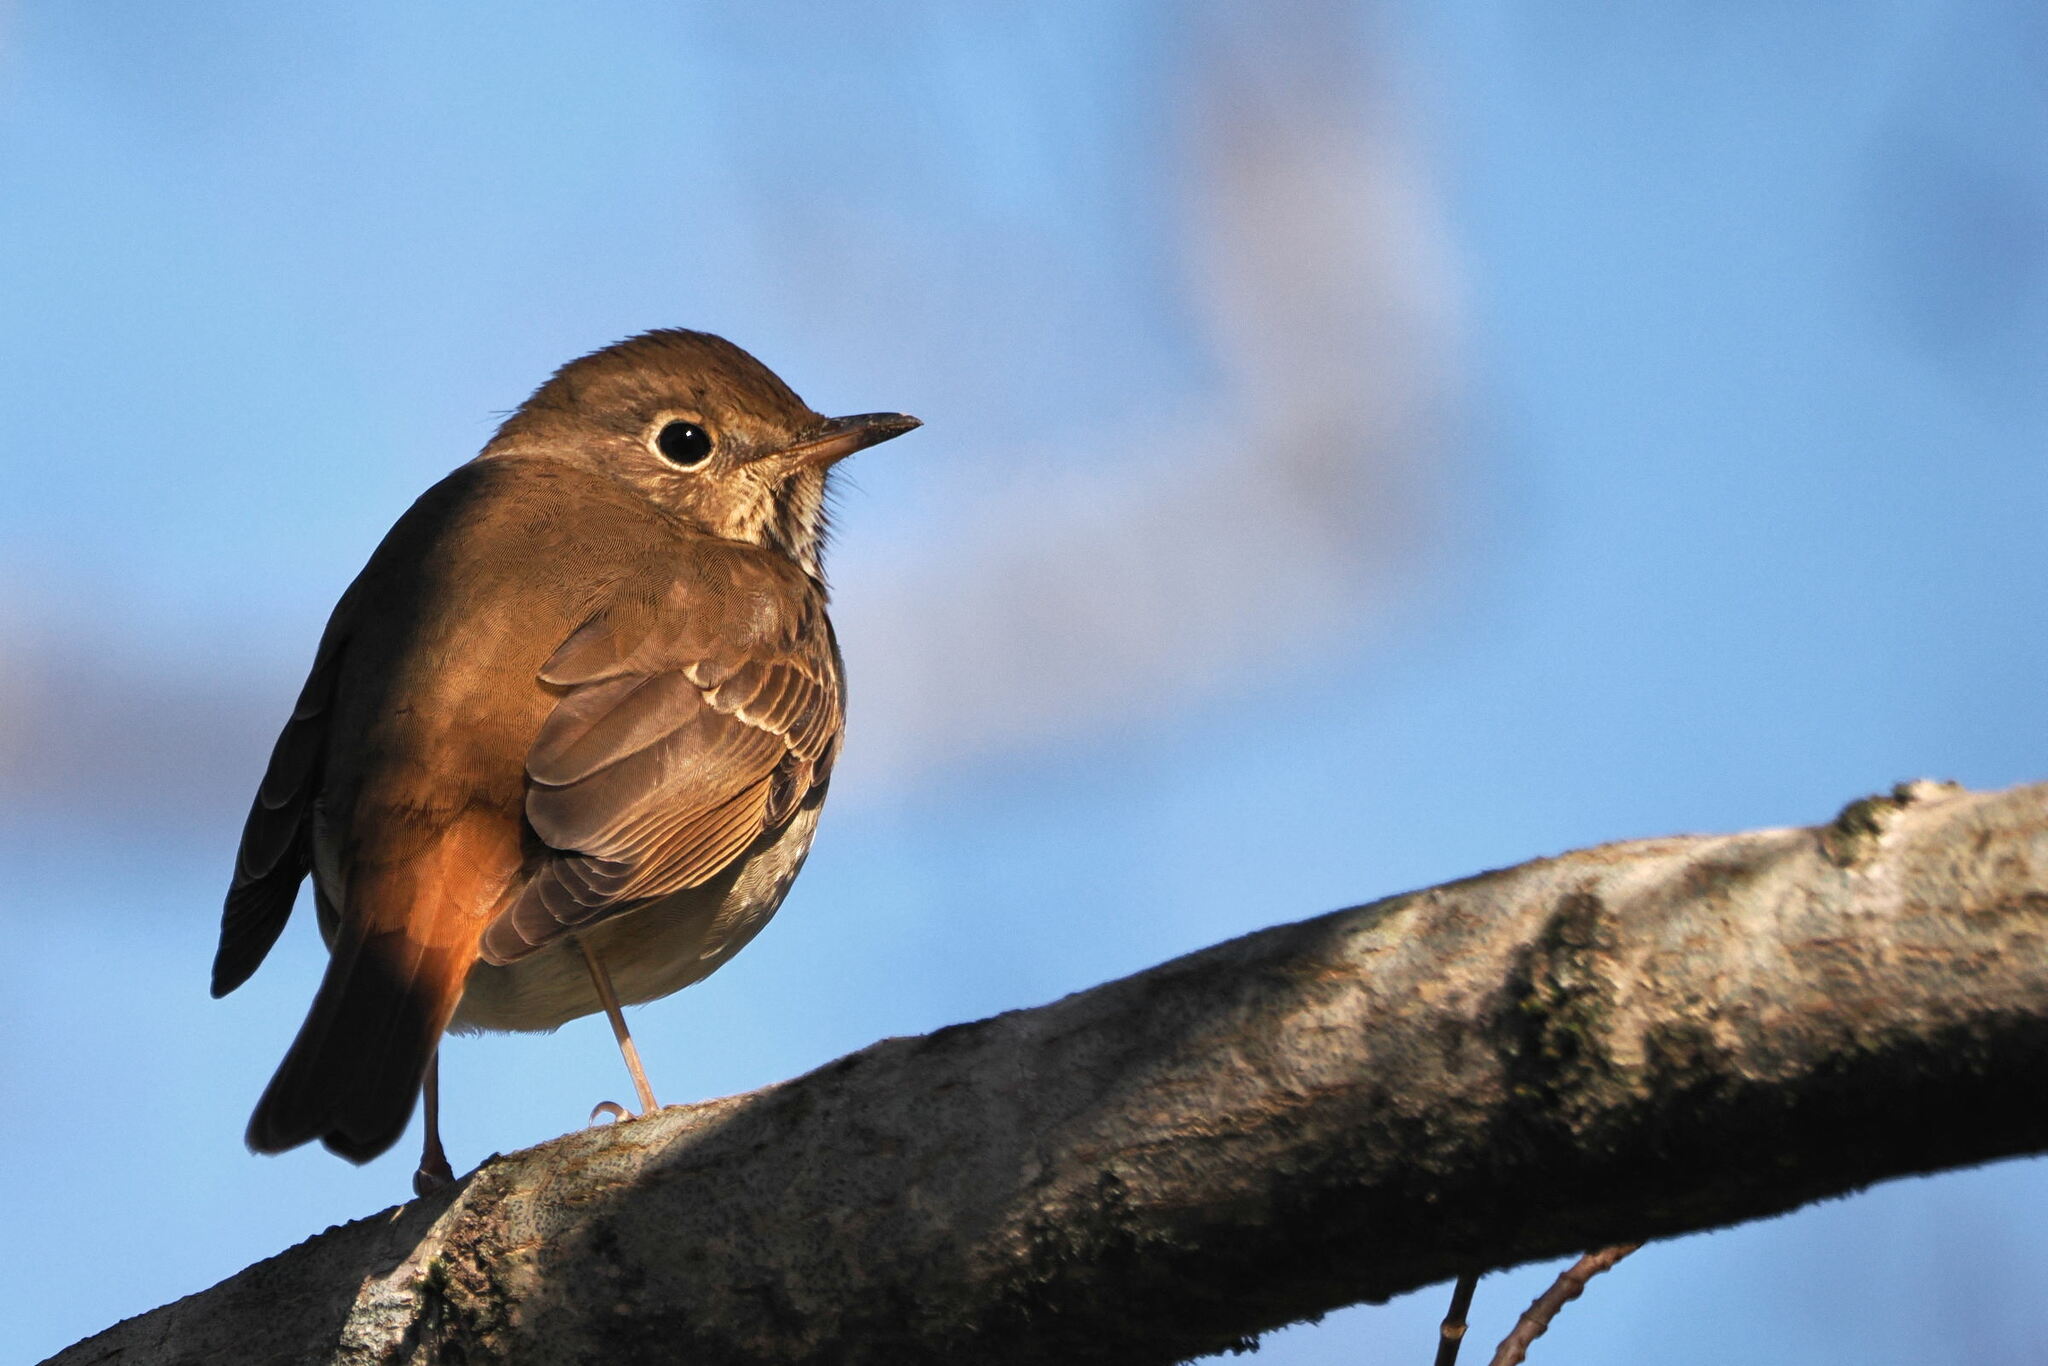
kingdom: Animalia
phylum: Chordata
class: Aves
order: Passeriformes
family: Turdidae
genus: Catharus
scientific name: Catharus guttatus
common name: Hermit thrush
